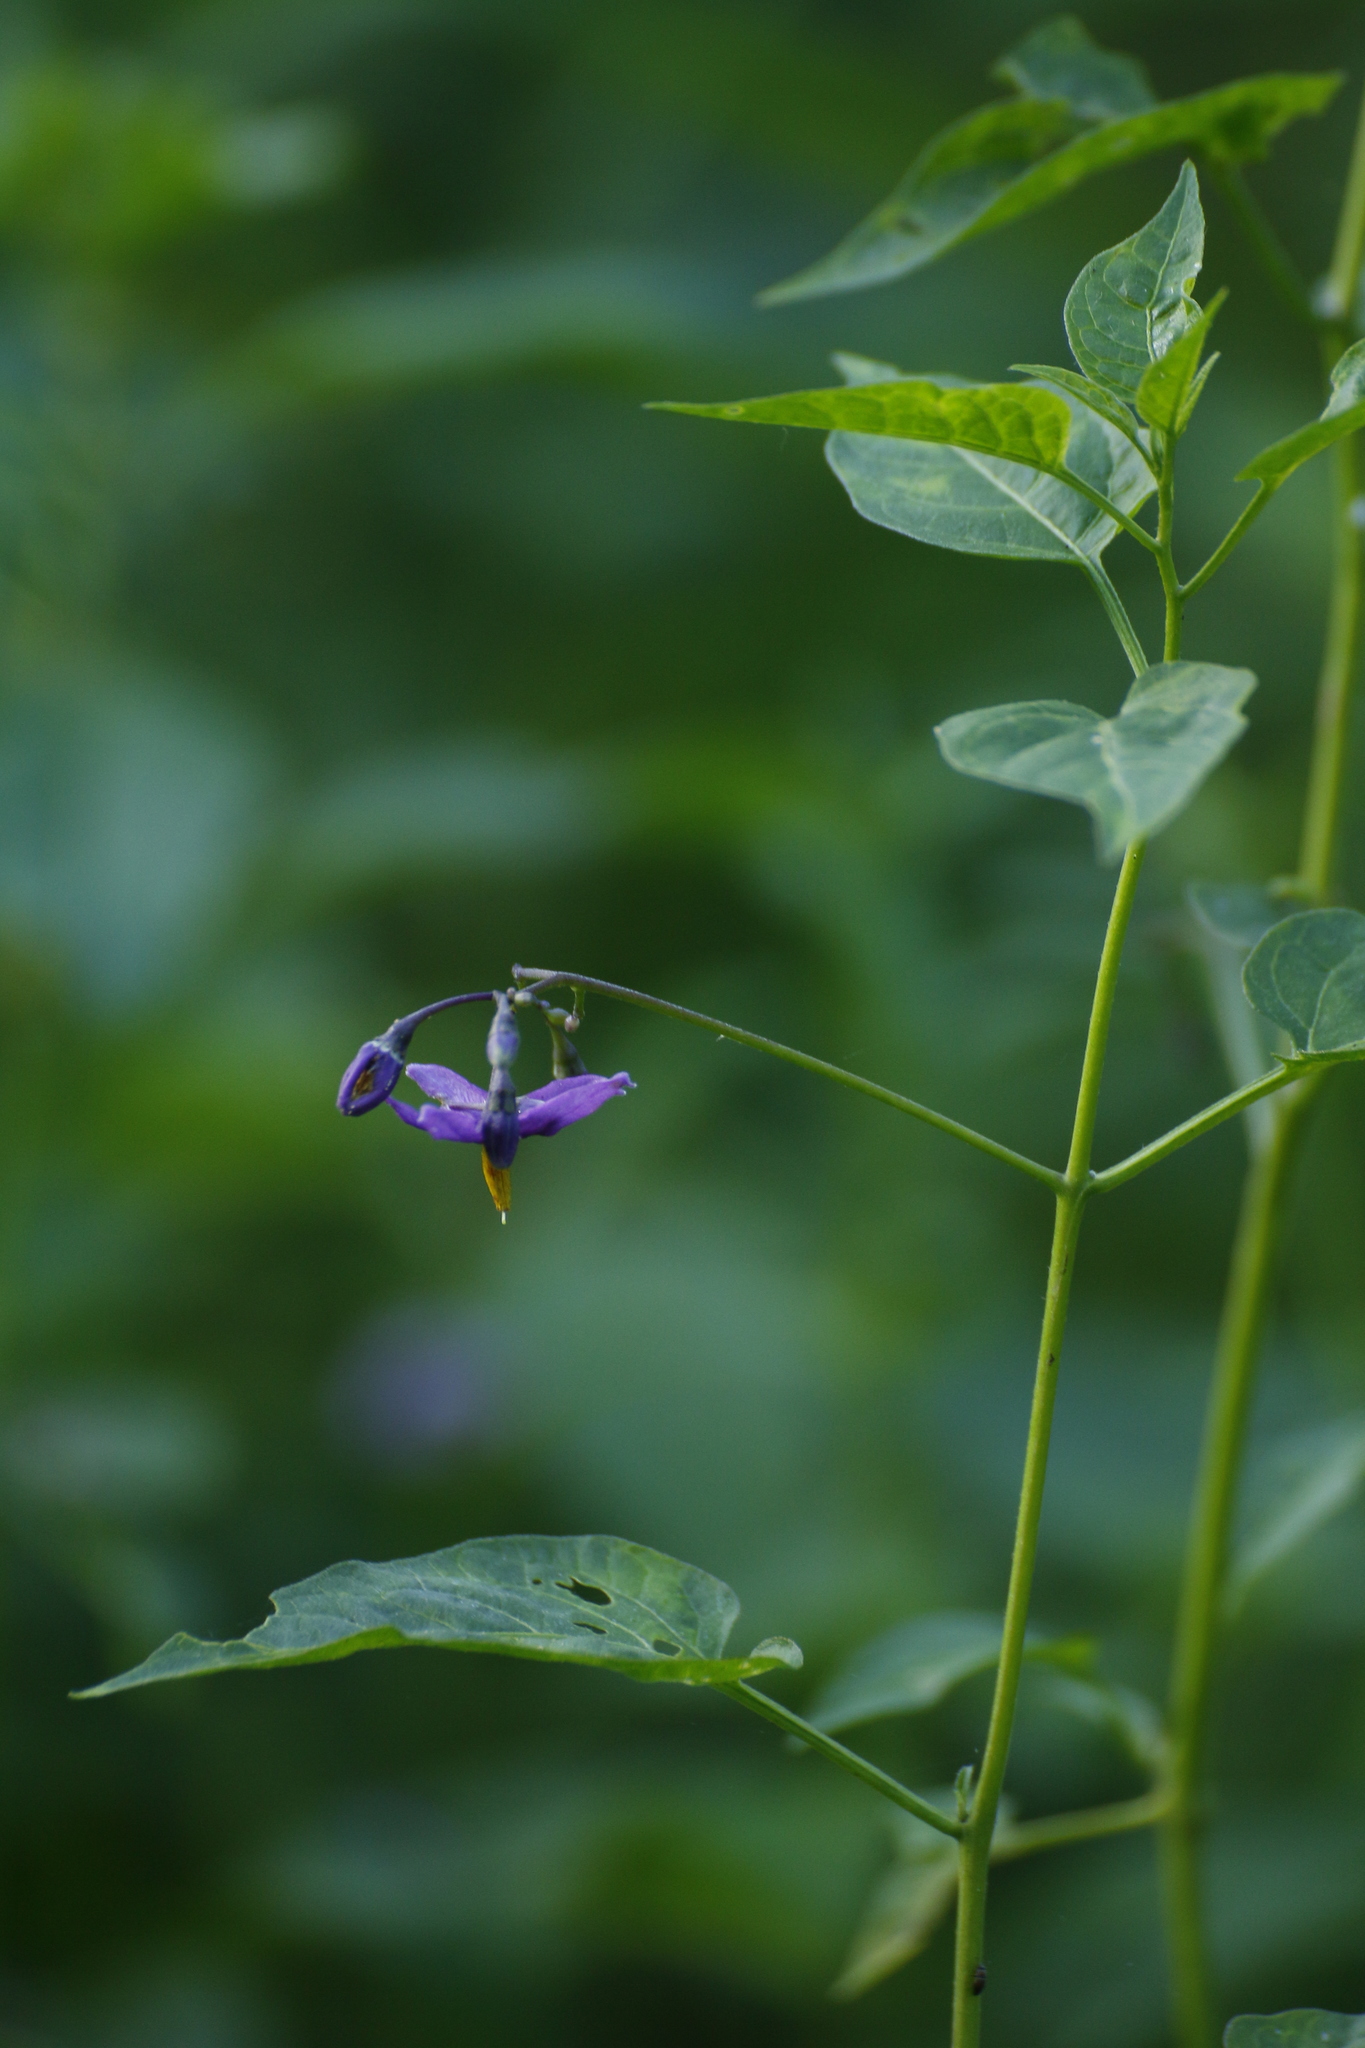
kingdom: Plantae
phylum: Tracheophyta
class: Magnoliopsida
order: Solanales
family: Solanaceae
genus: Solanum
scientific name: Solanum dulcamara
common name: Climbing nightshade
